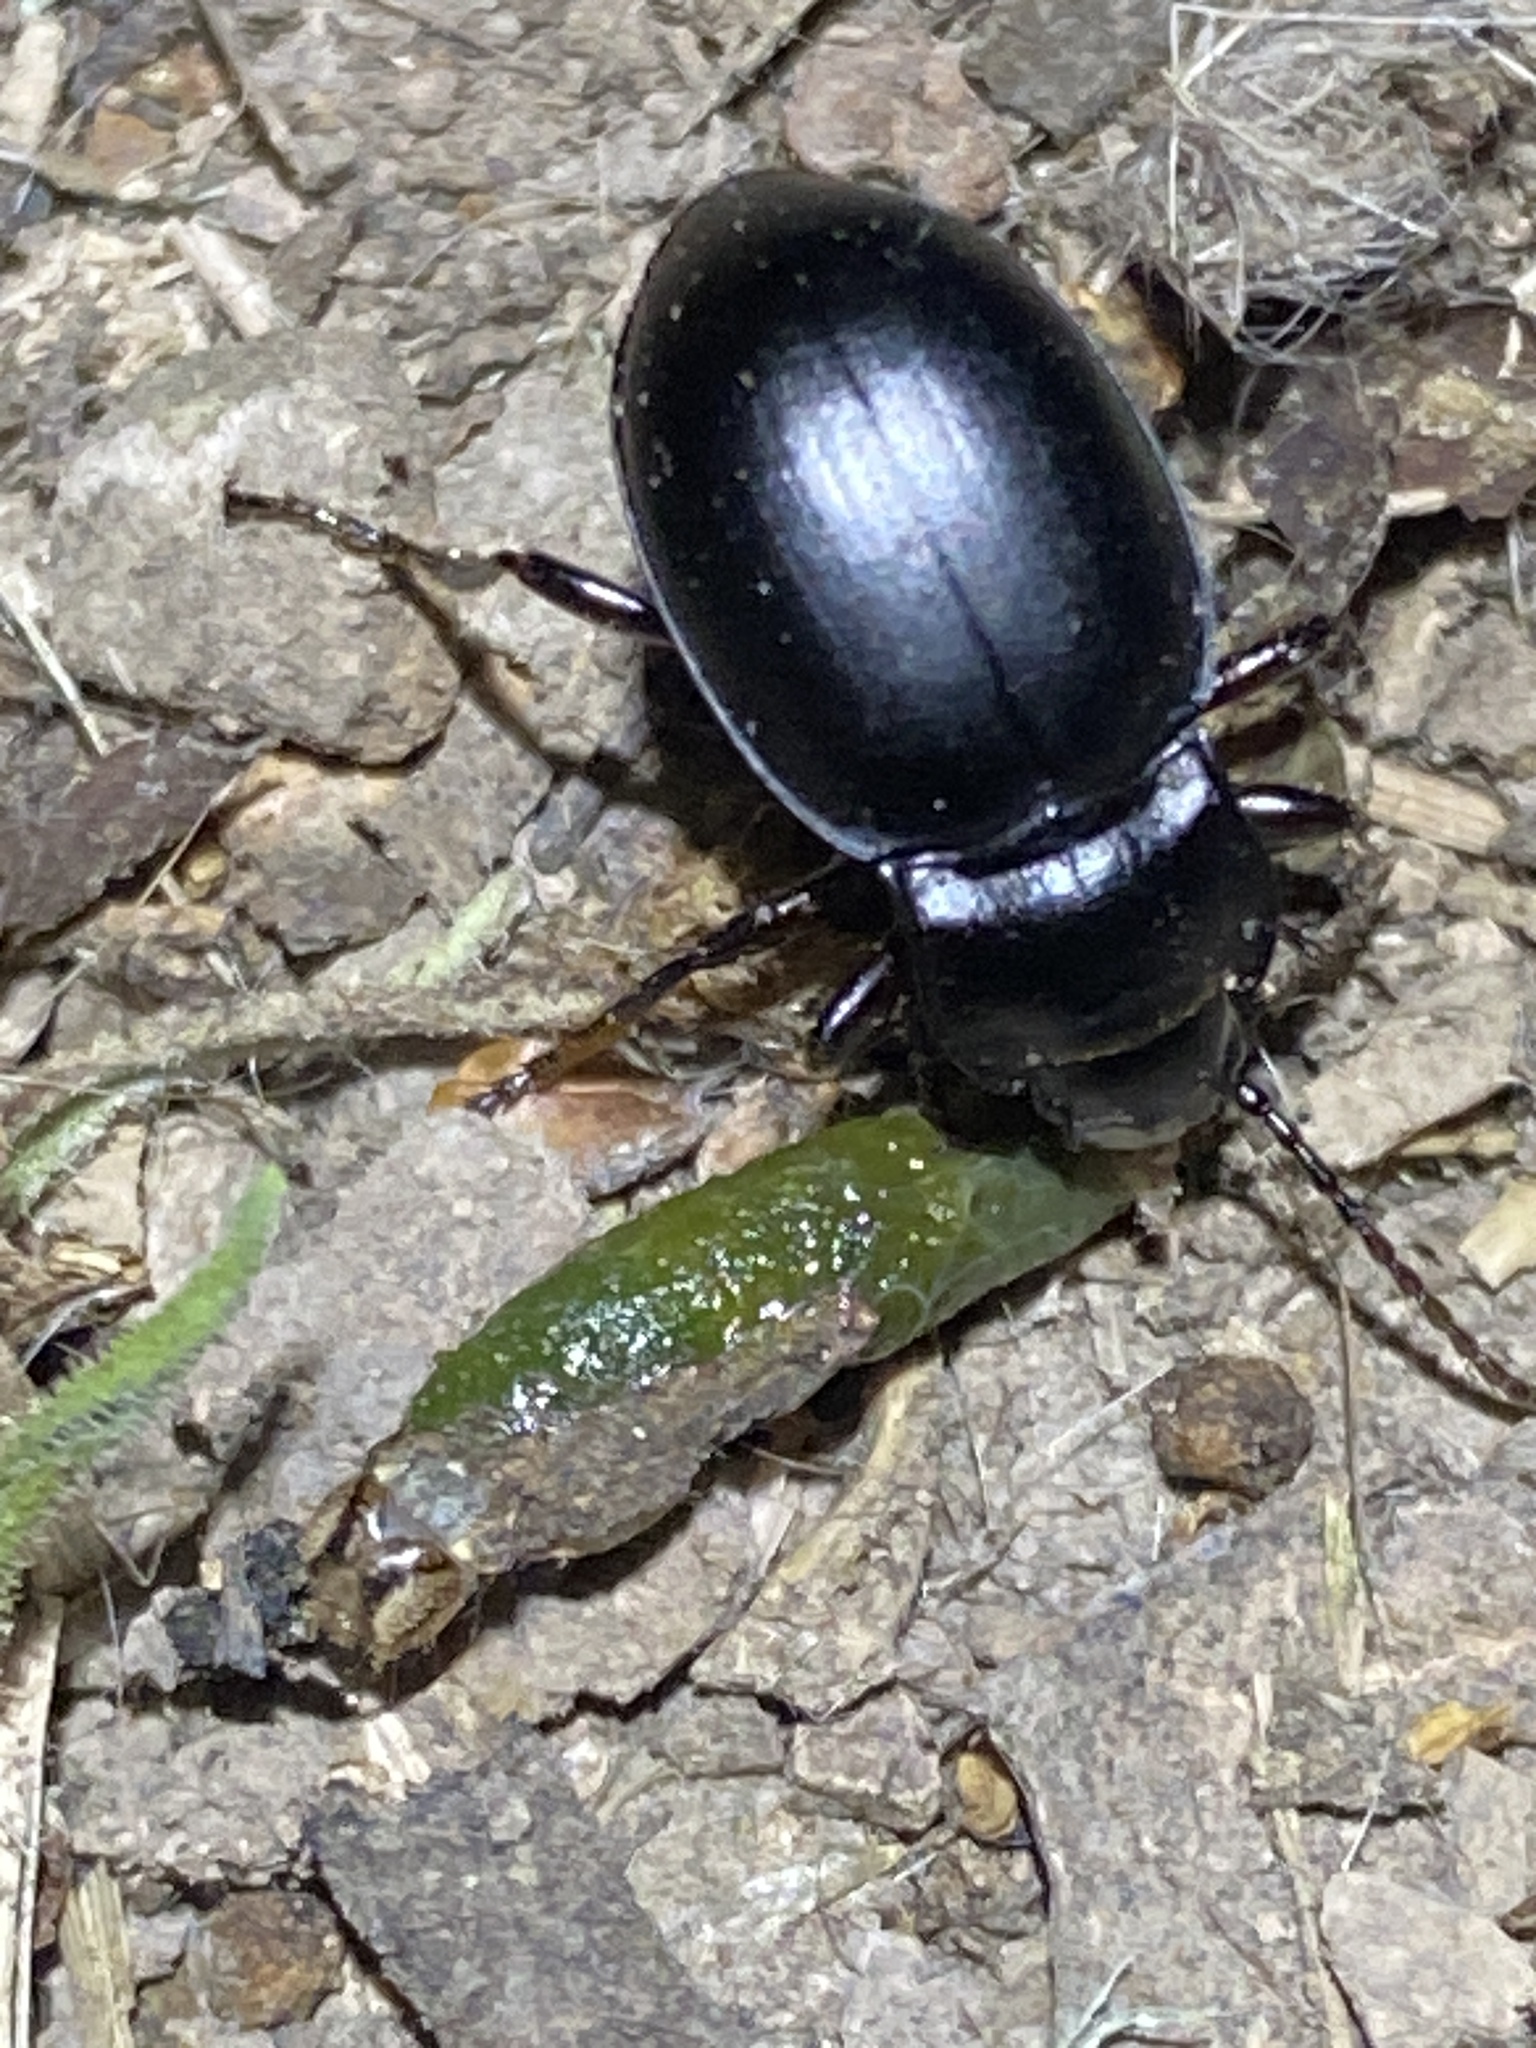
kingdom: Animalia
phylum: Arthropoda
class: Insecta
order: Coleoptera
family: Carabidae
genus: Metrius
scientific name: Metrius contractus
